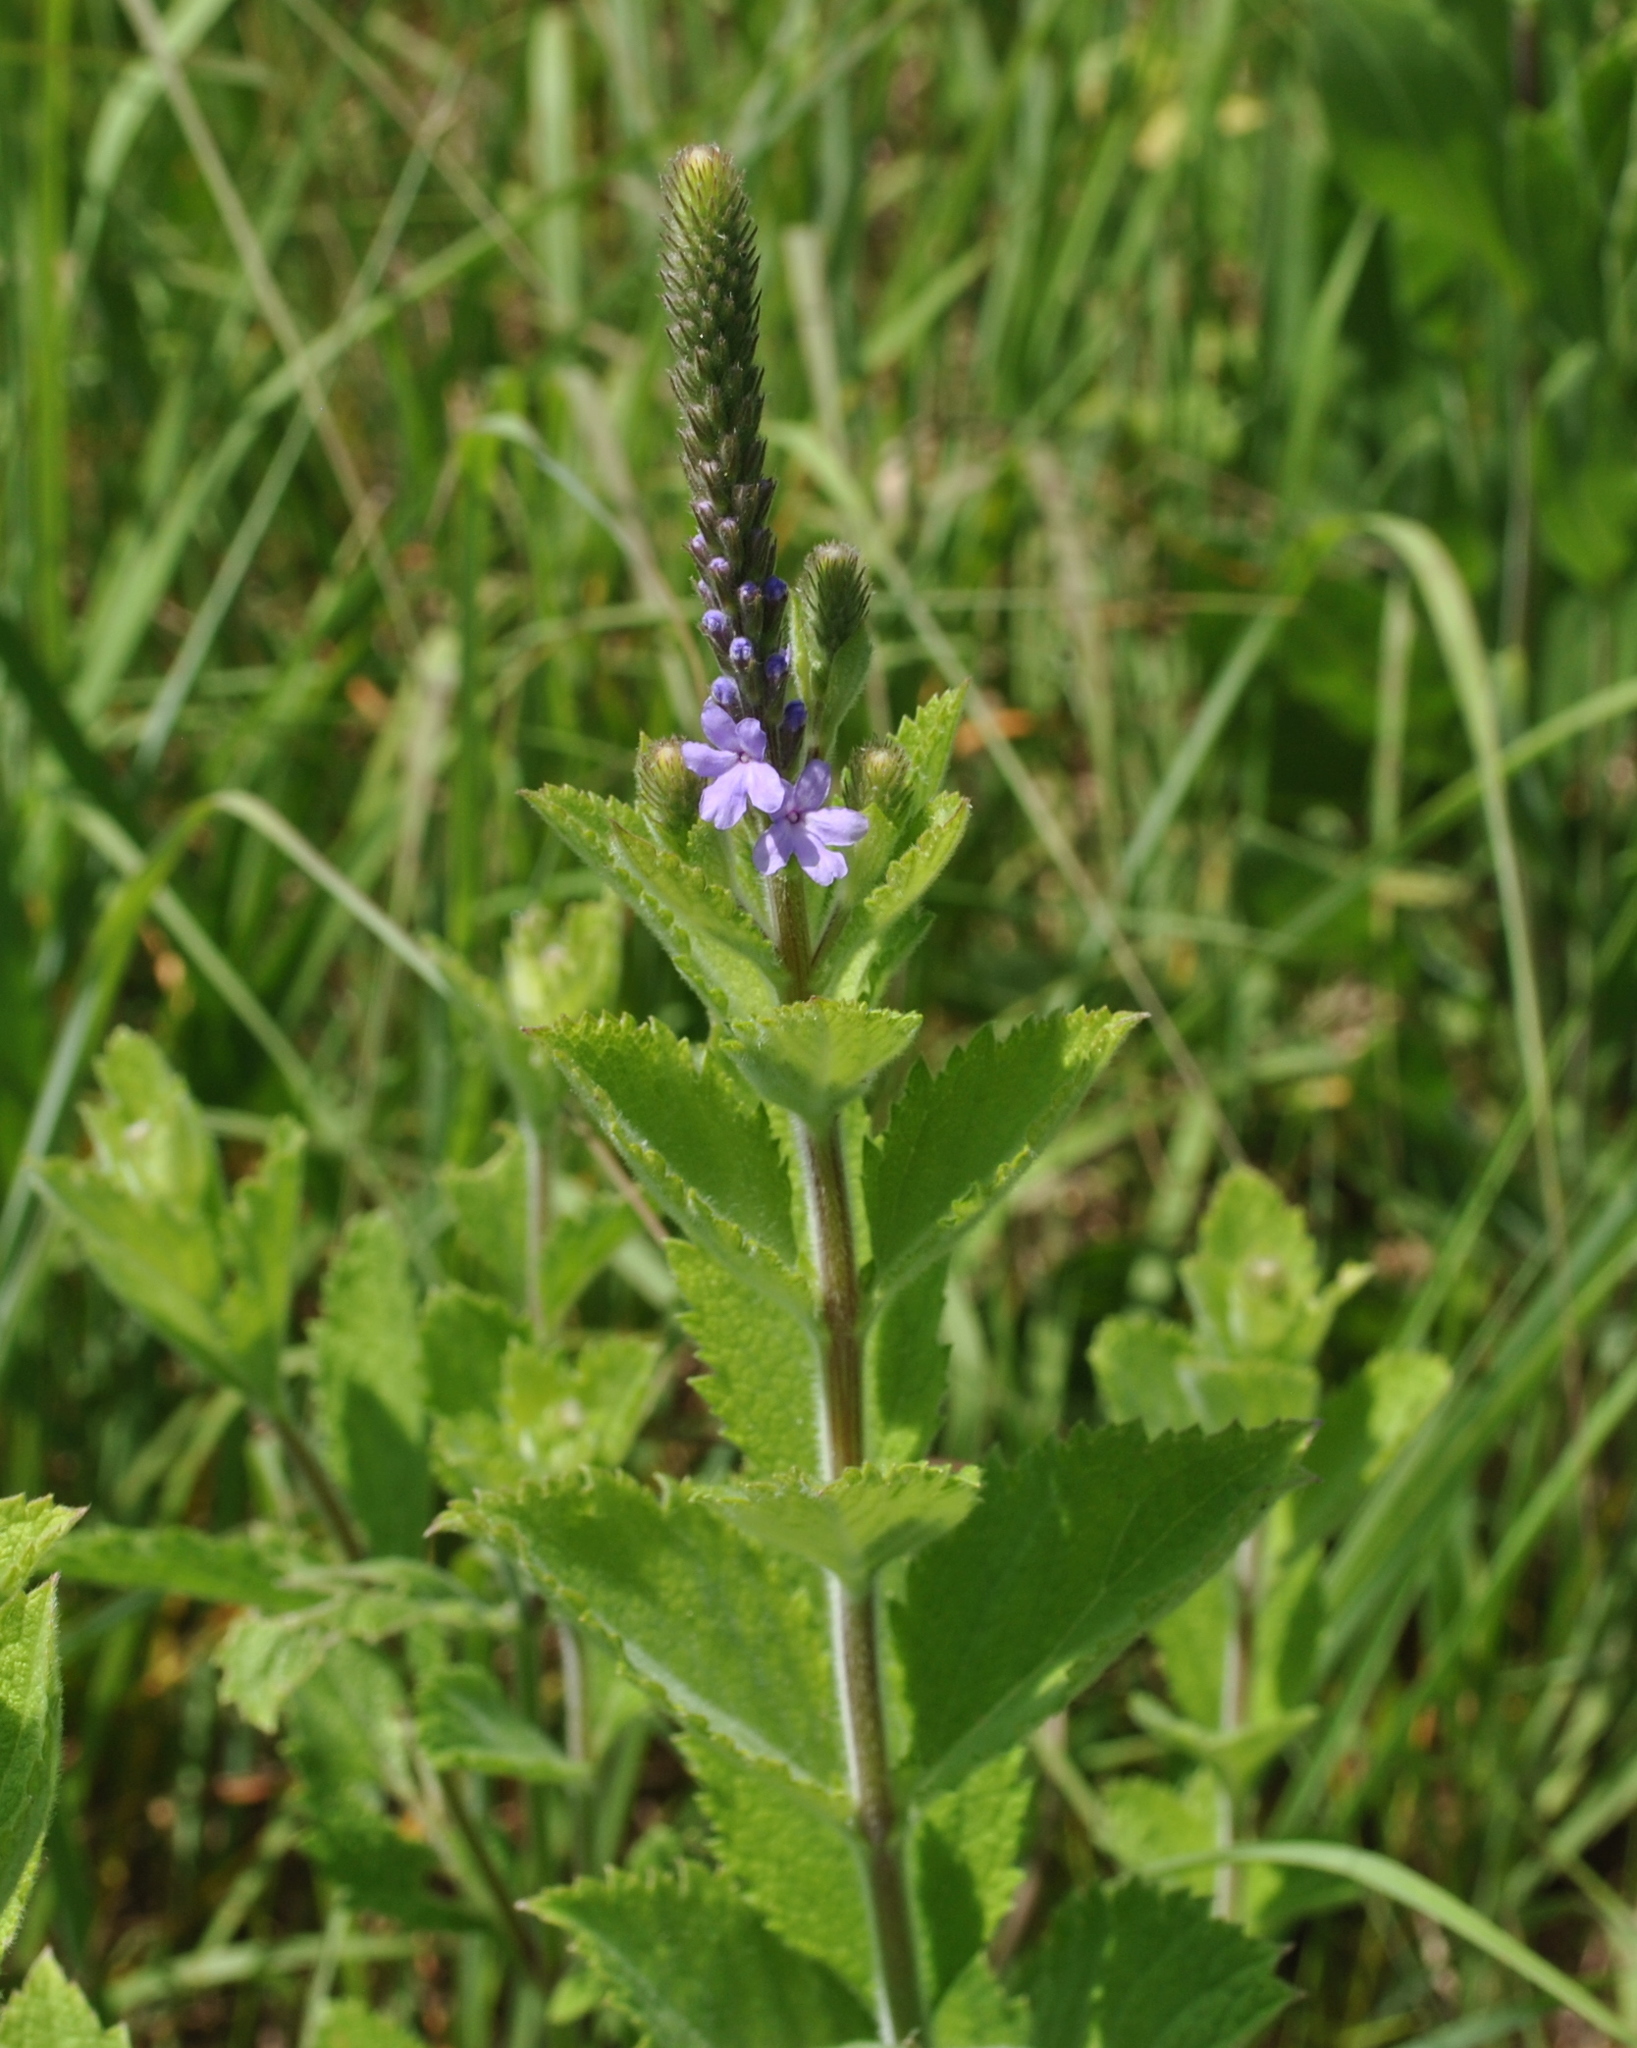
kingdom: Plantae
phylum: Tracheophyta
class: Magnoliopsida
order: Lamiales
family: Verbenaceae
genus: Verbena
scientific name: Verbena stricta
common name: Hoary vervain
